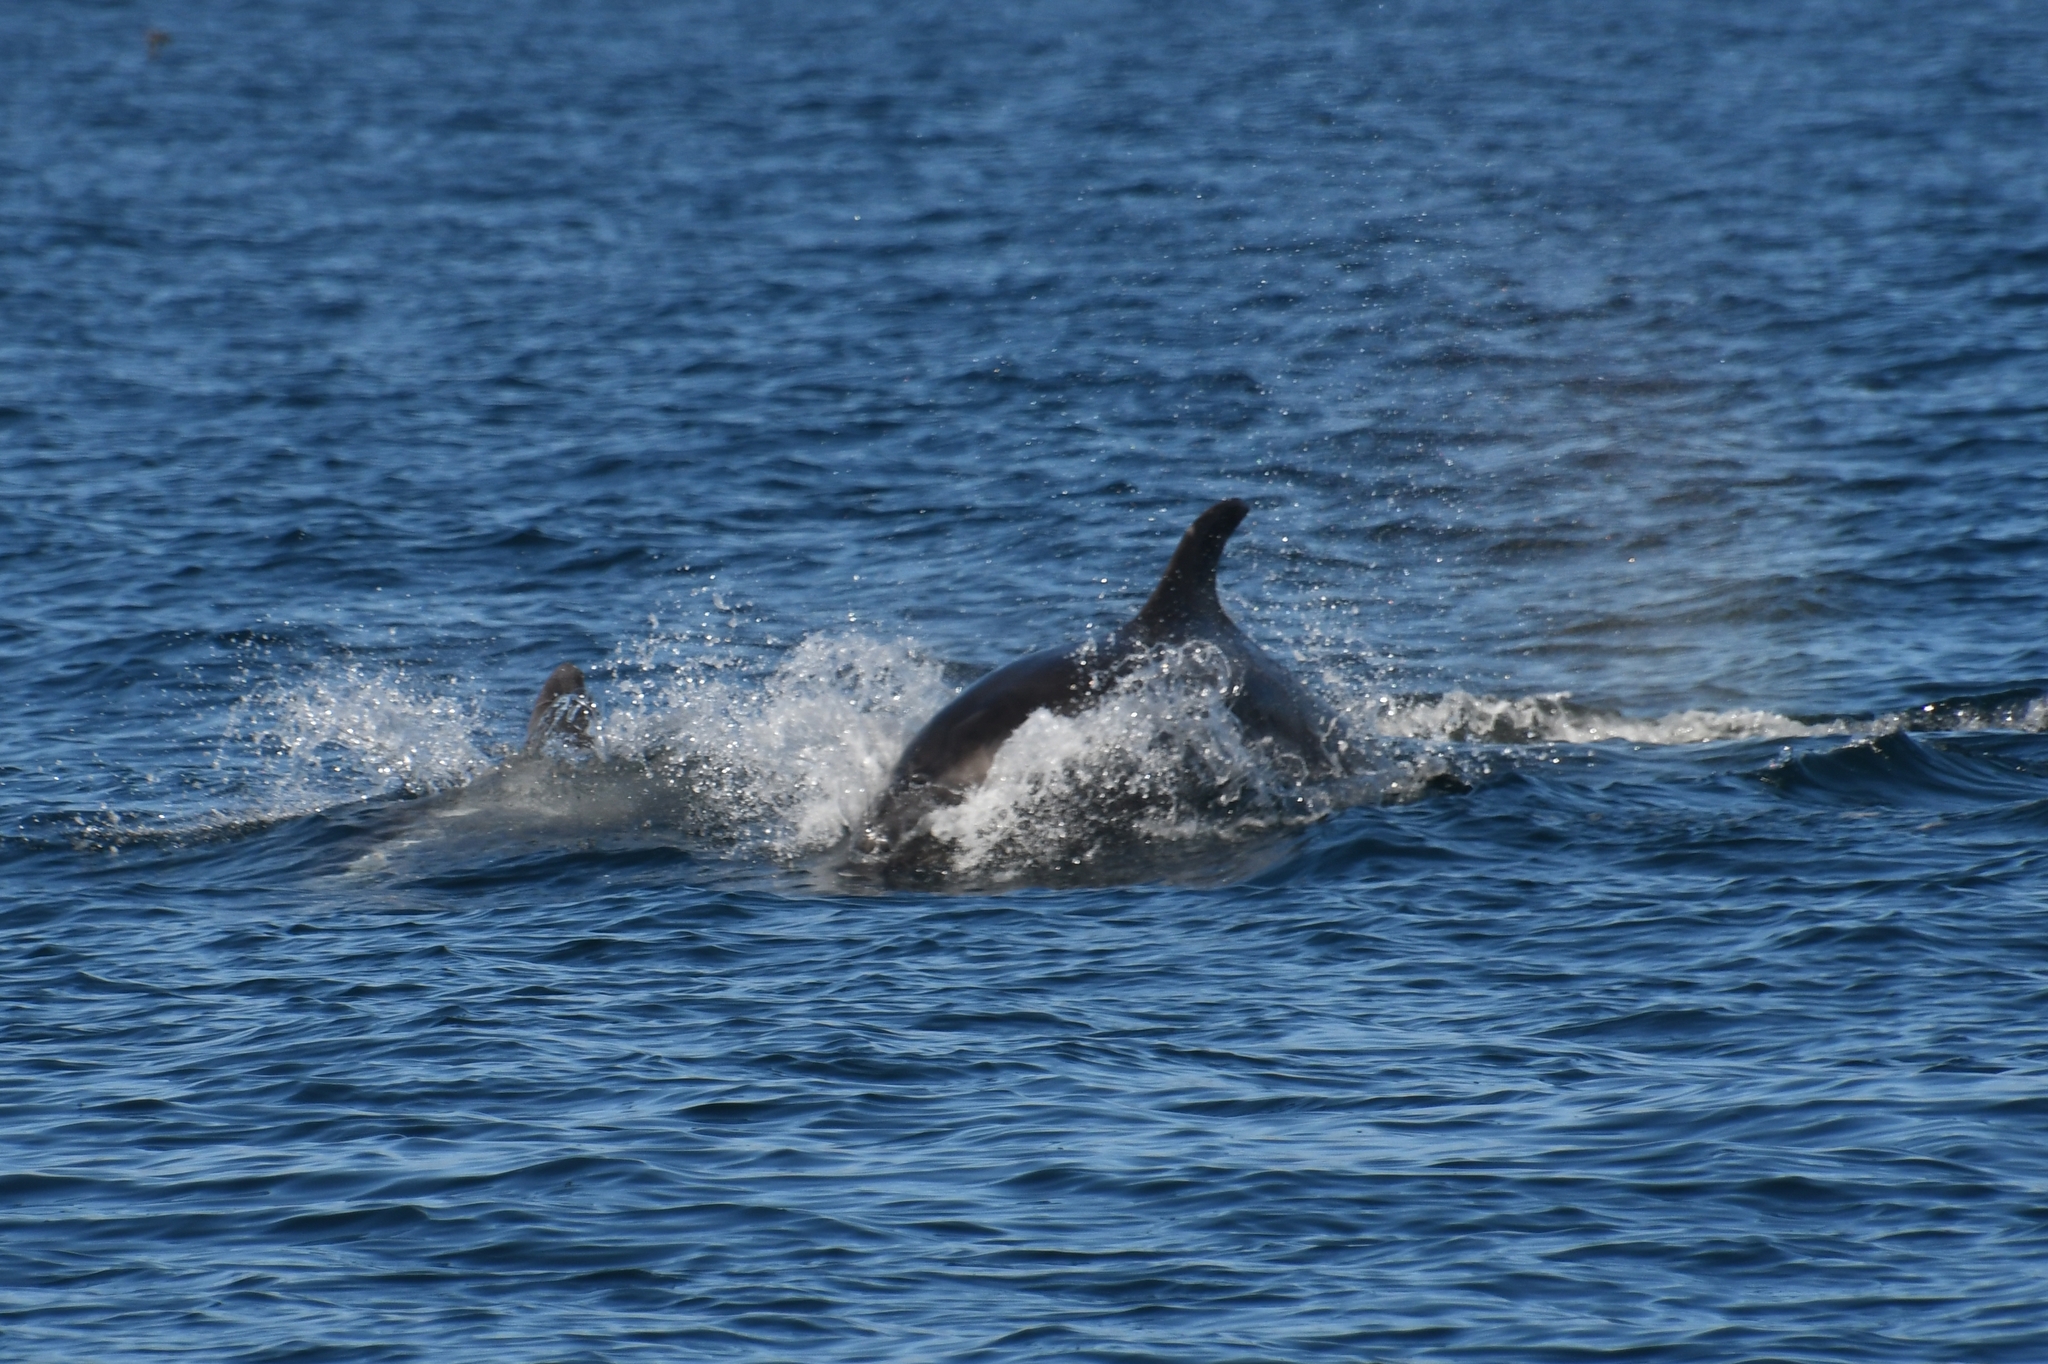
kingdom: Animalia
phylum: Chordata
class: Mammalia
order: Cetacea
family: Delphinidae
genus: Delphinus
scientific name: Delphinus delphis
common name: Common dolphin
